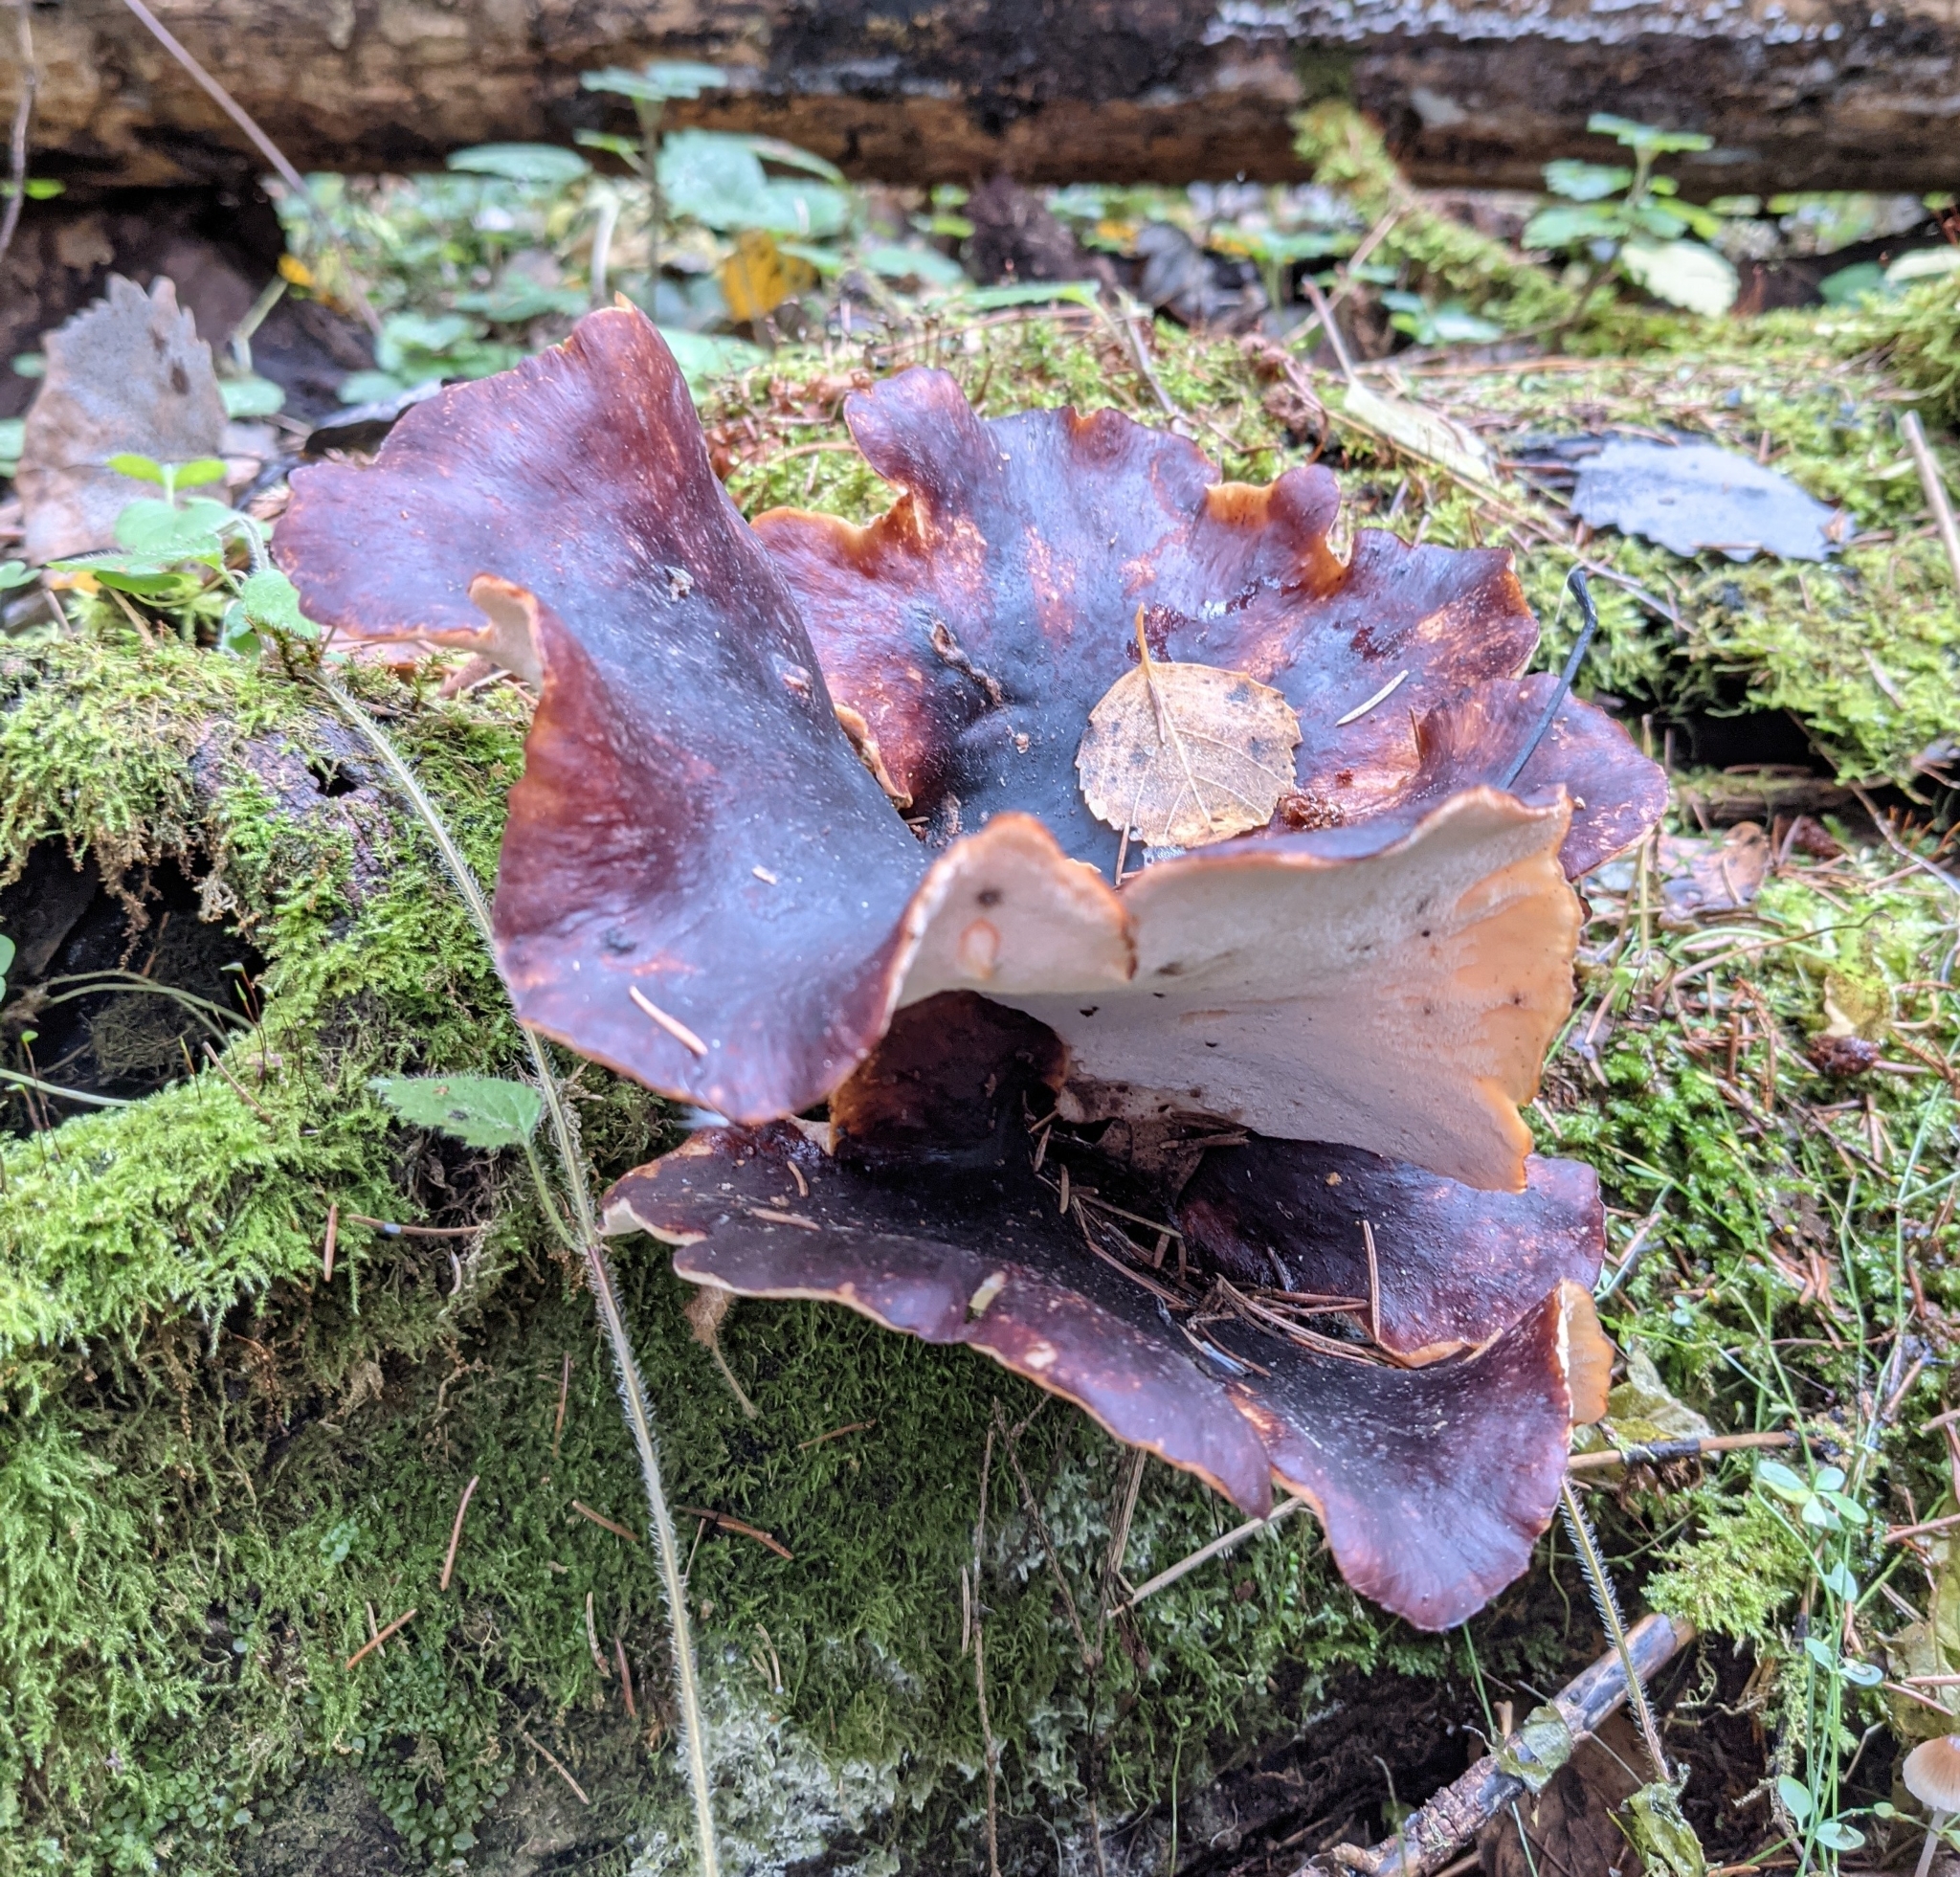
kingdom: Fungi
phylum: Basidiomycota
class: Agaricomycetes
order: Polyporales
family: Polyporaceae
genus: Picipes
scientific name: Picipes badius
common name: Bay polypore
